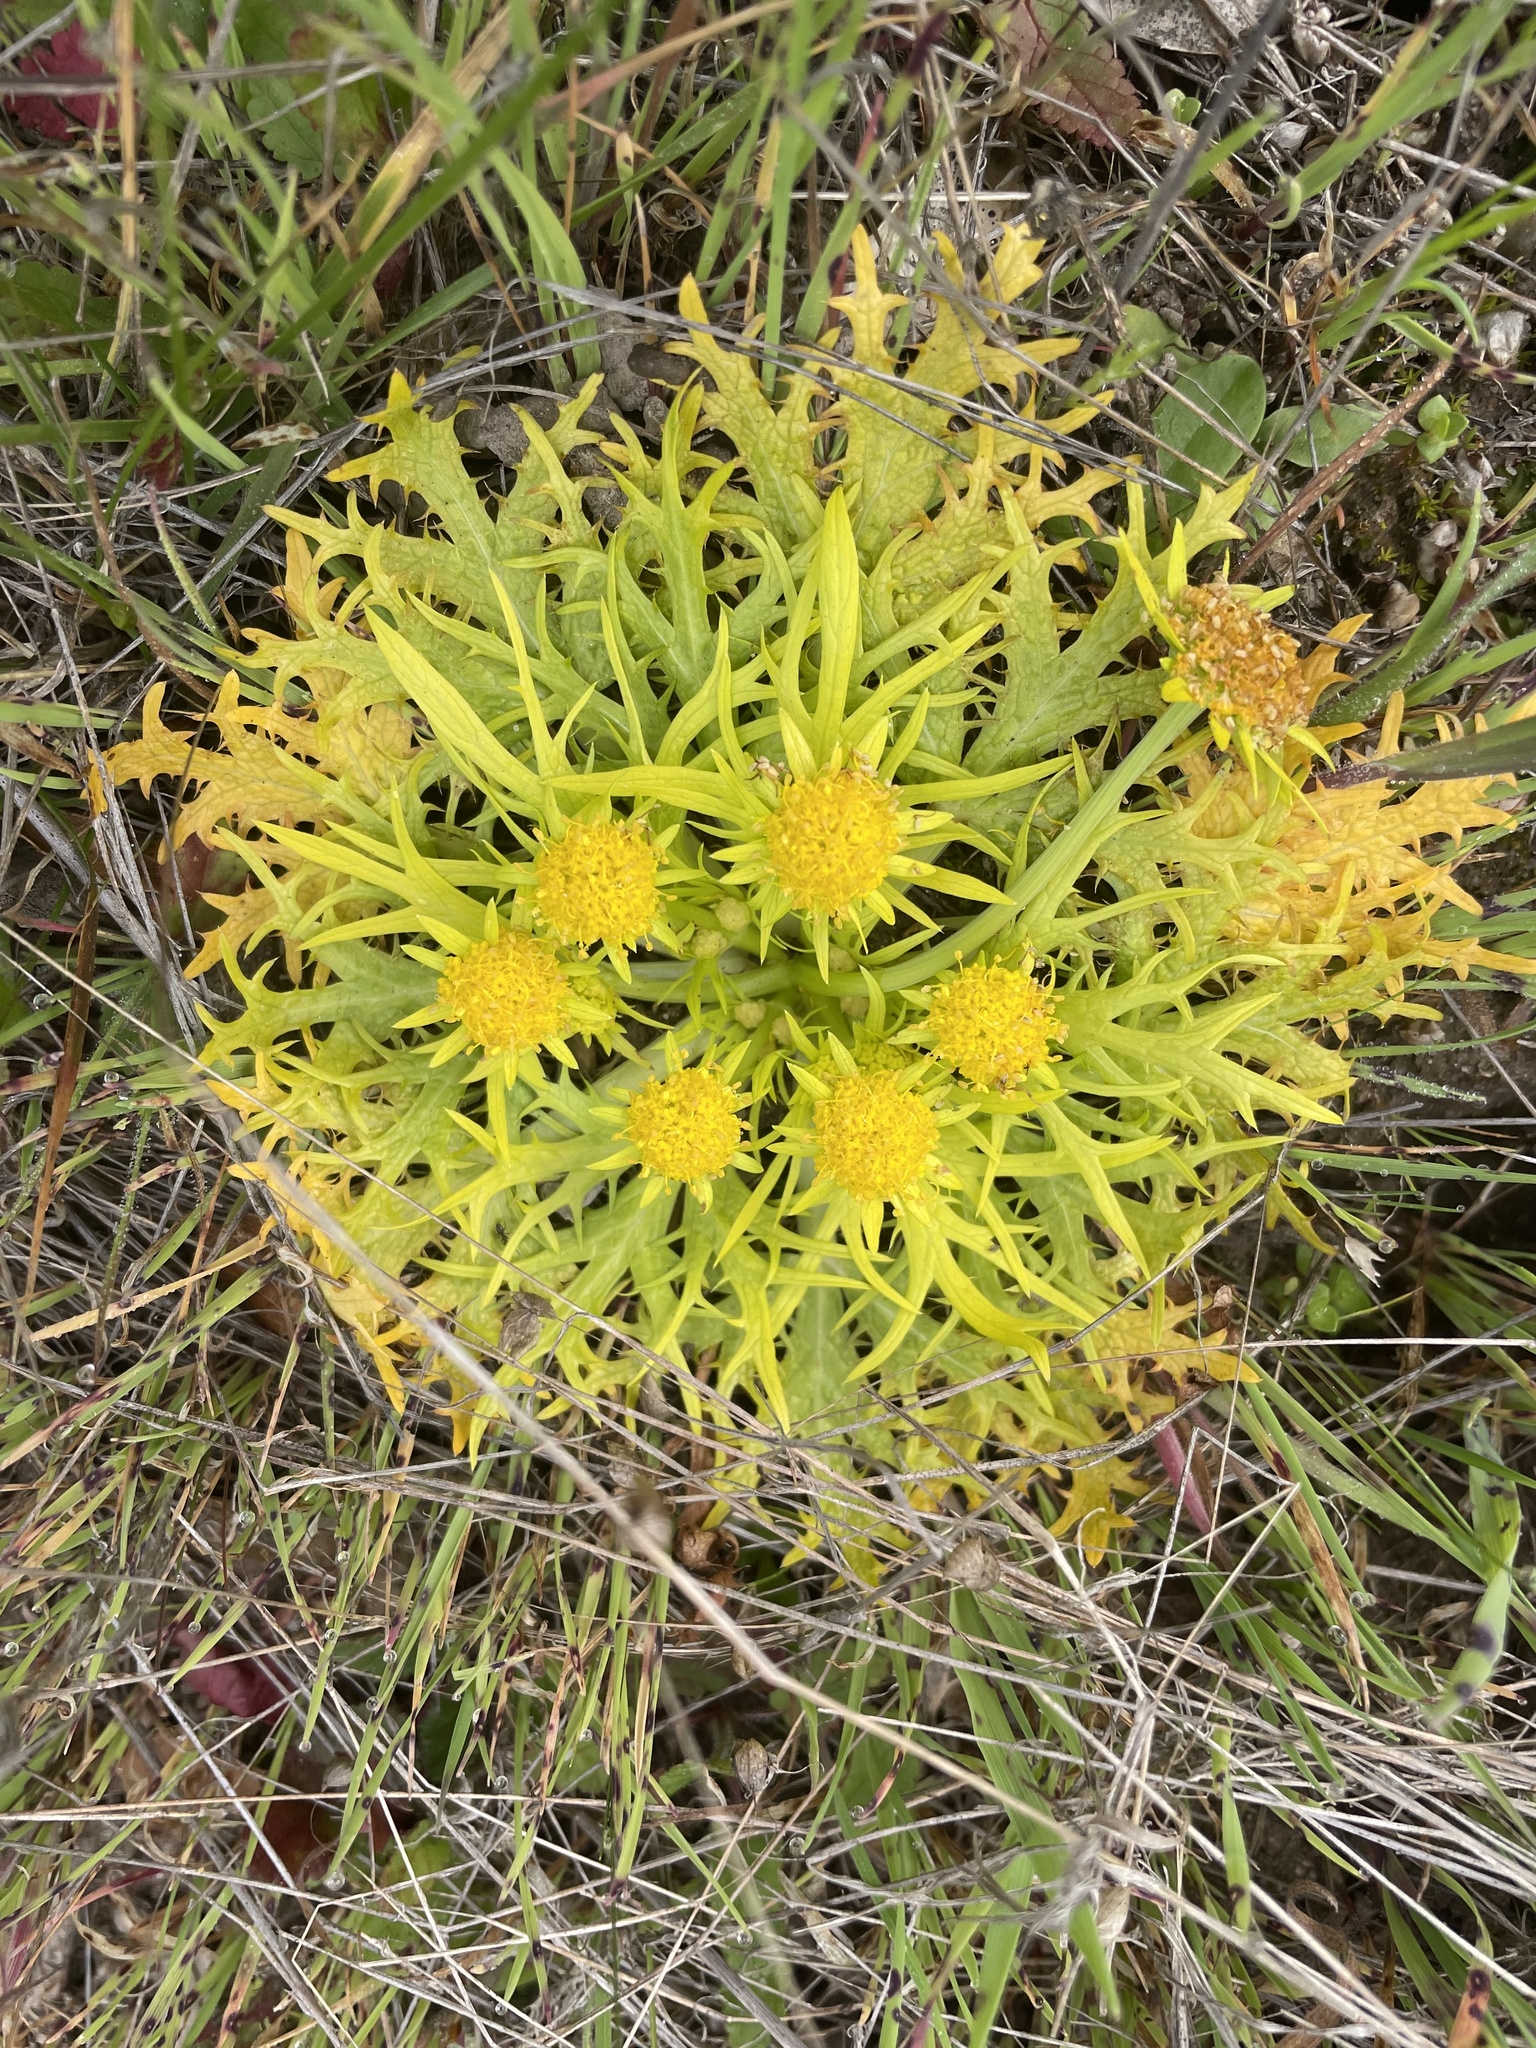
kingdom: Plantae
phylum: Tracheophyta
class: Magnoliopsida
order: Apiales
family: Apiaceae
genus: Sanicula
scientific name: Sanicula arctopoides
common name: Footsteps-of-spring
